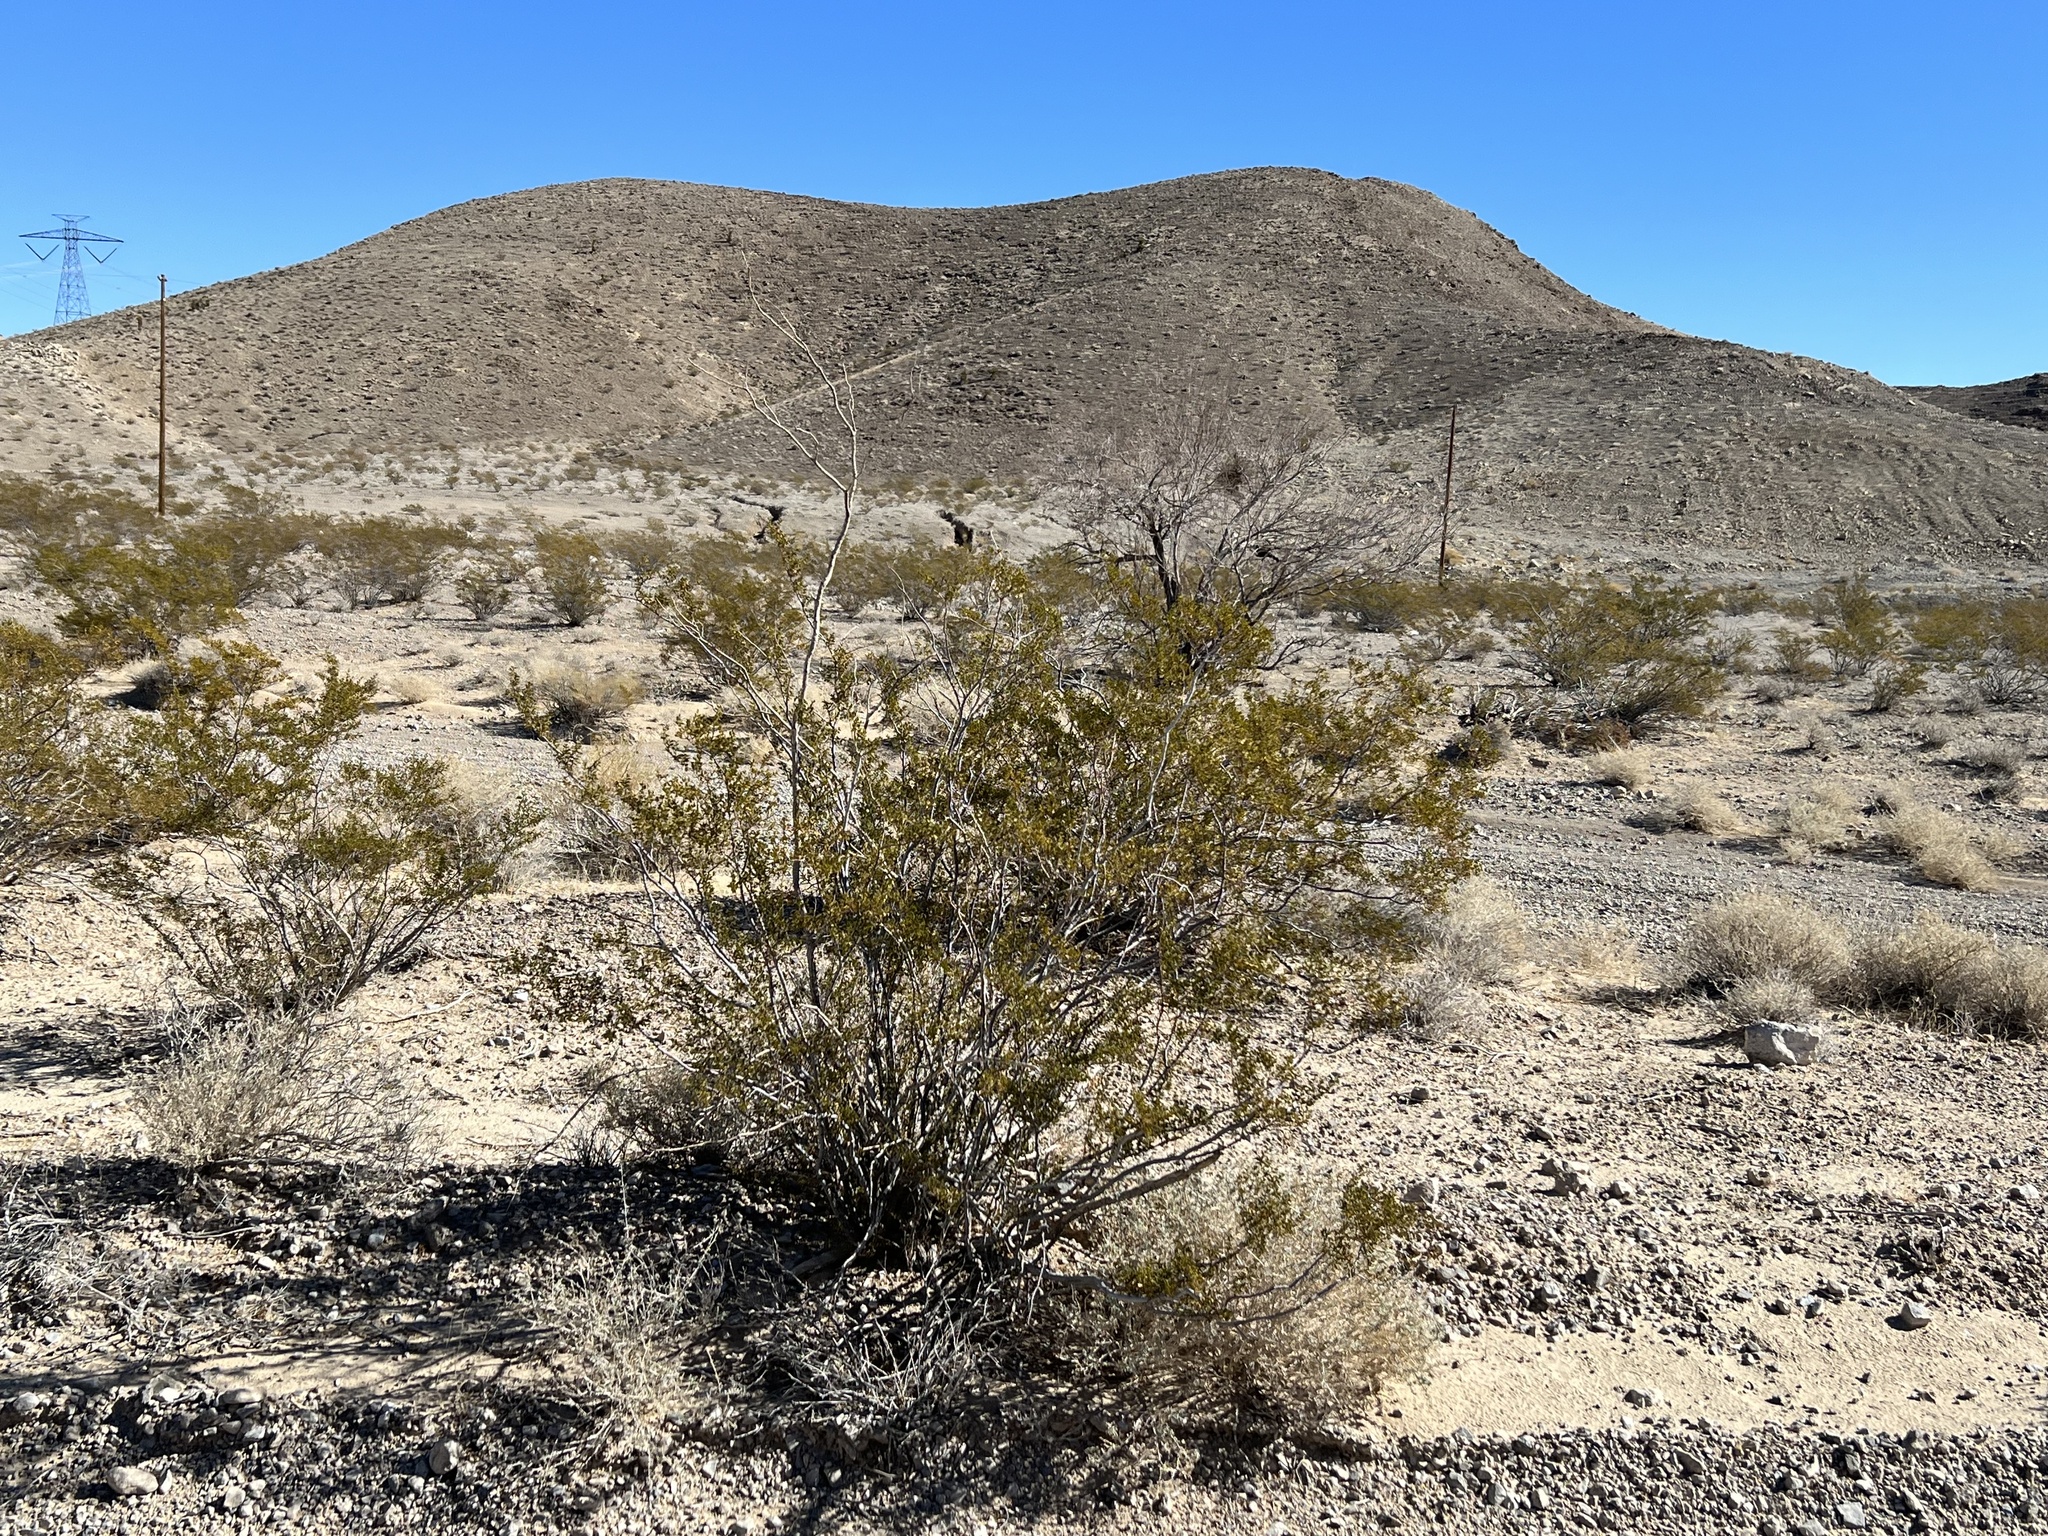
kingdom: Plantae
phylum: Tracheophyta
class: Magnoliopsida
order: Zygophyllales
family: Zygophyllaceae
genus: Larrea
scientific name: Larrea tridentata
